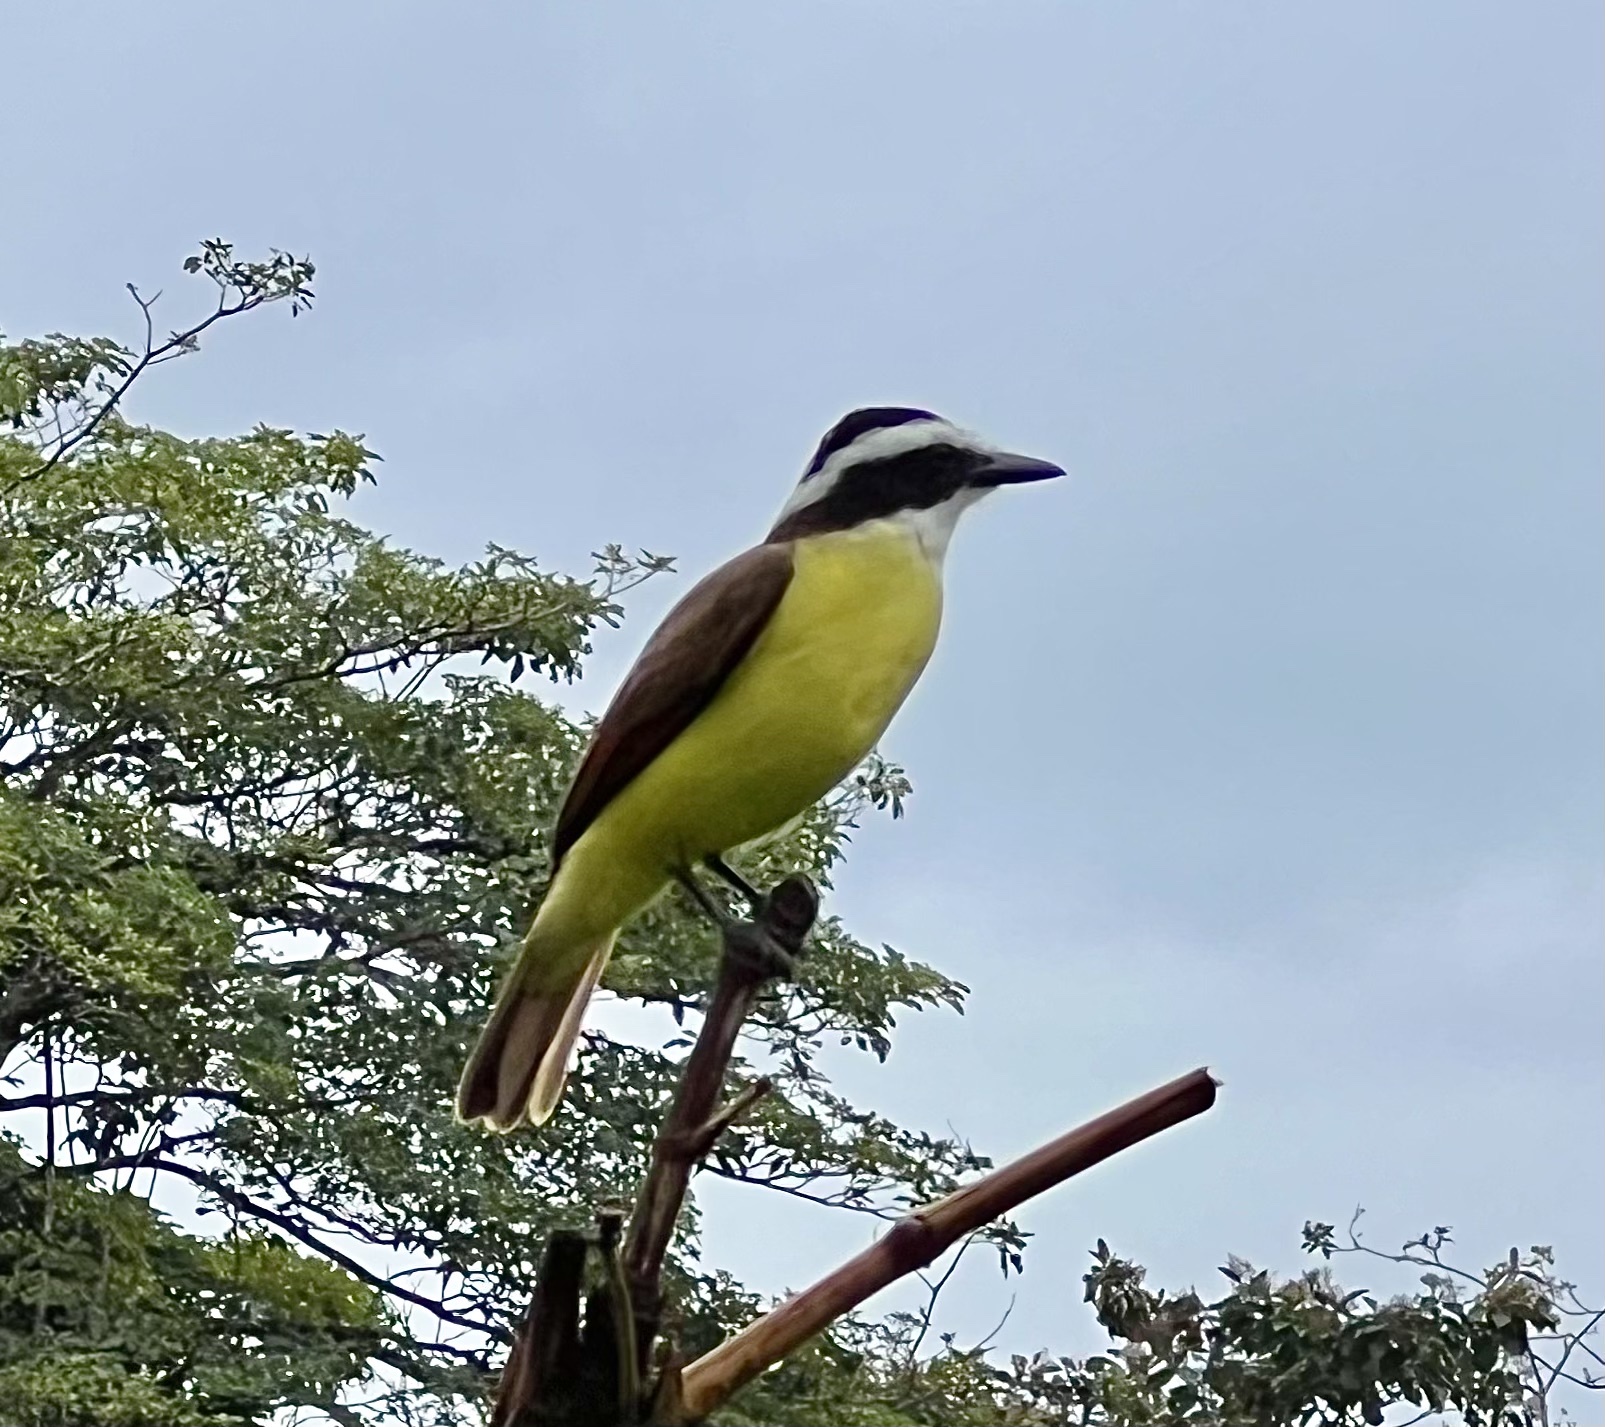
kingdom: Animalia
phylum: Chordata
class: Aves
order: Passeriformes
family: Tyrannidae
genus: Pitangus
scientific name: Pitangus sulphuratus
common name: Great kiskadee
